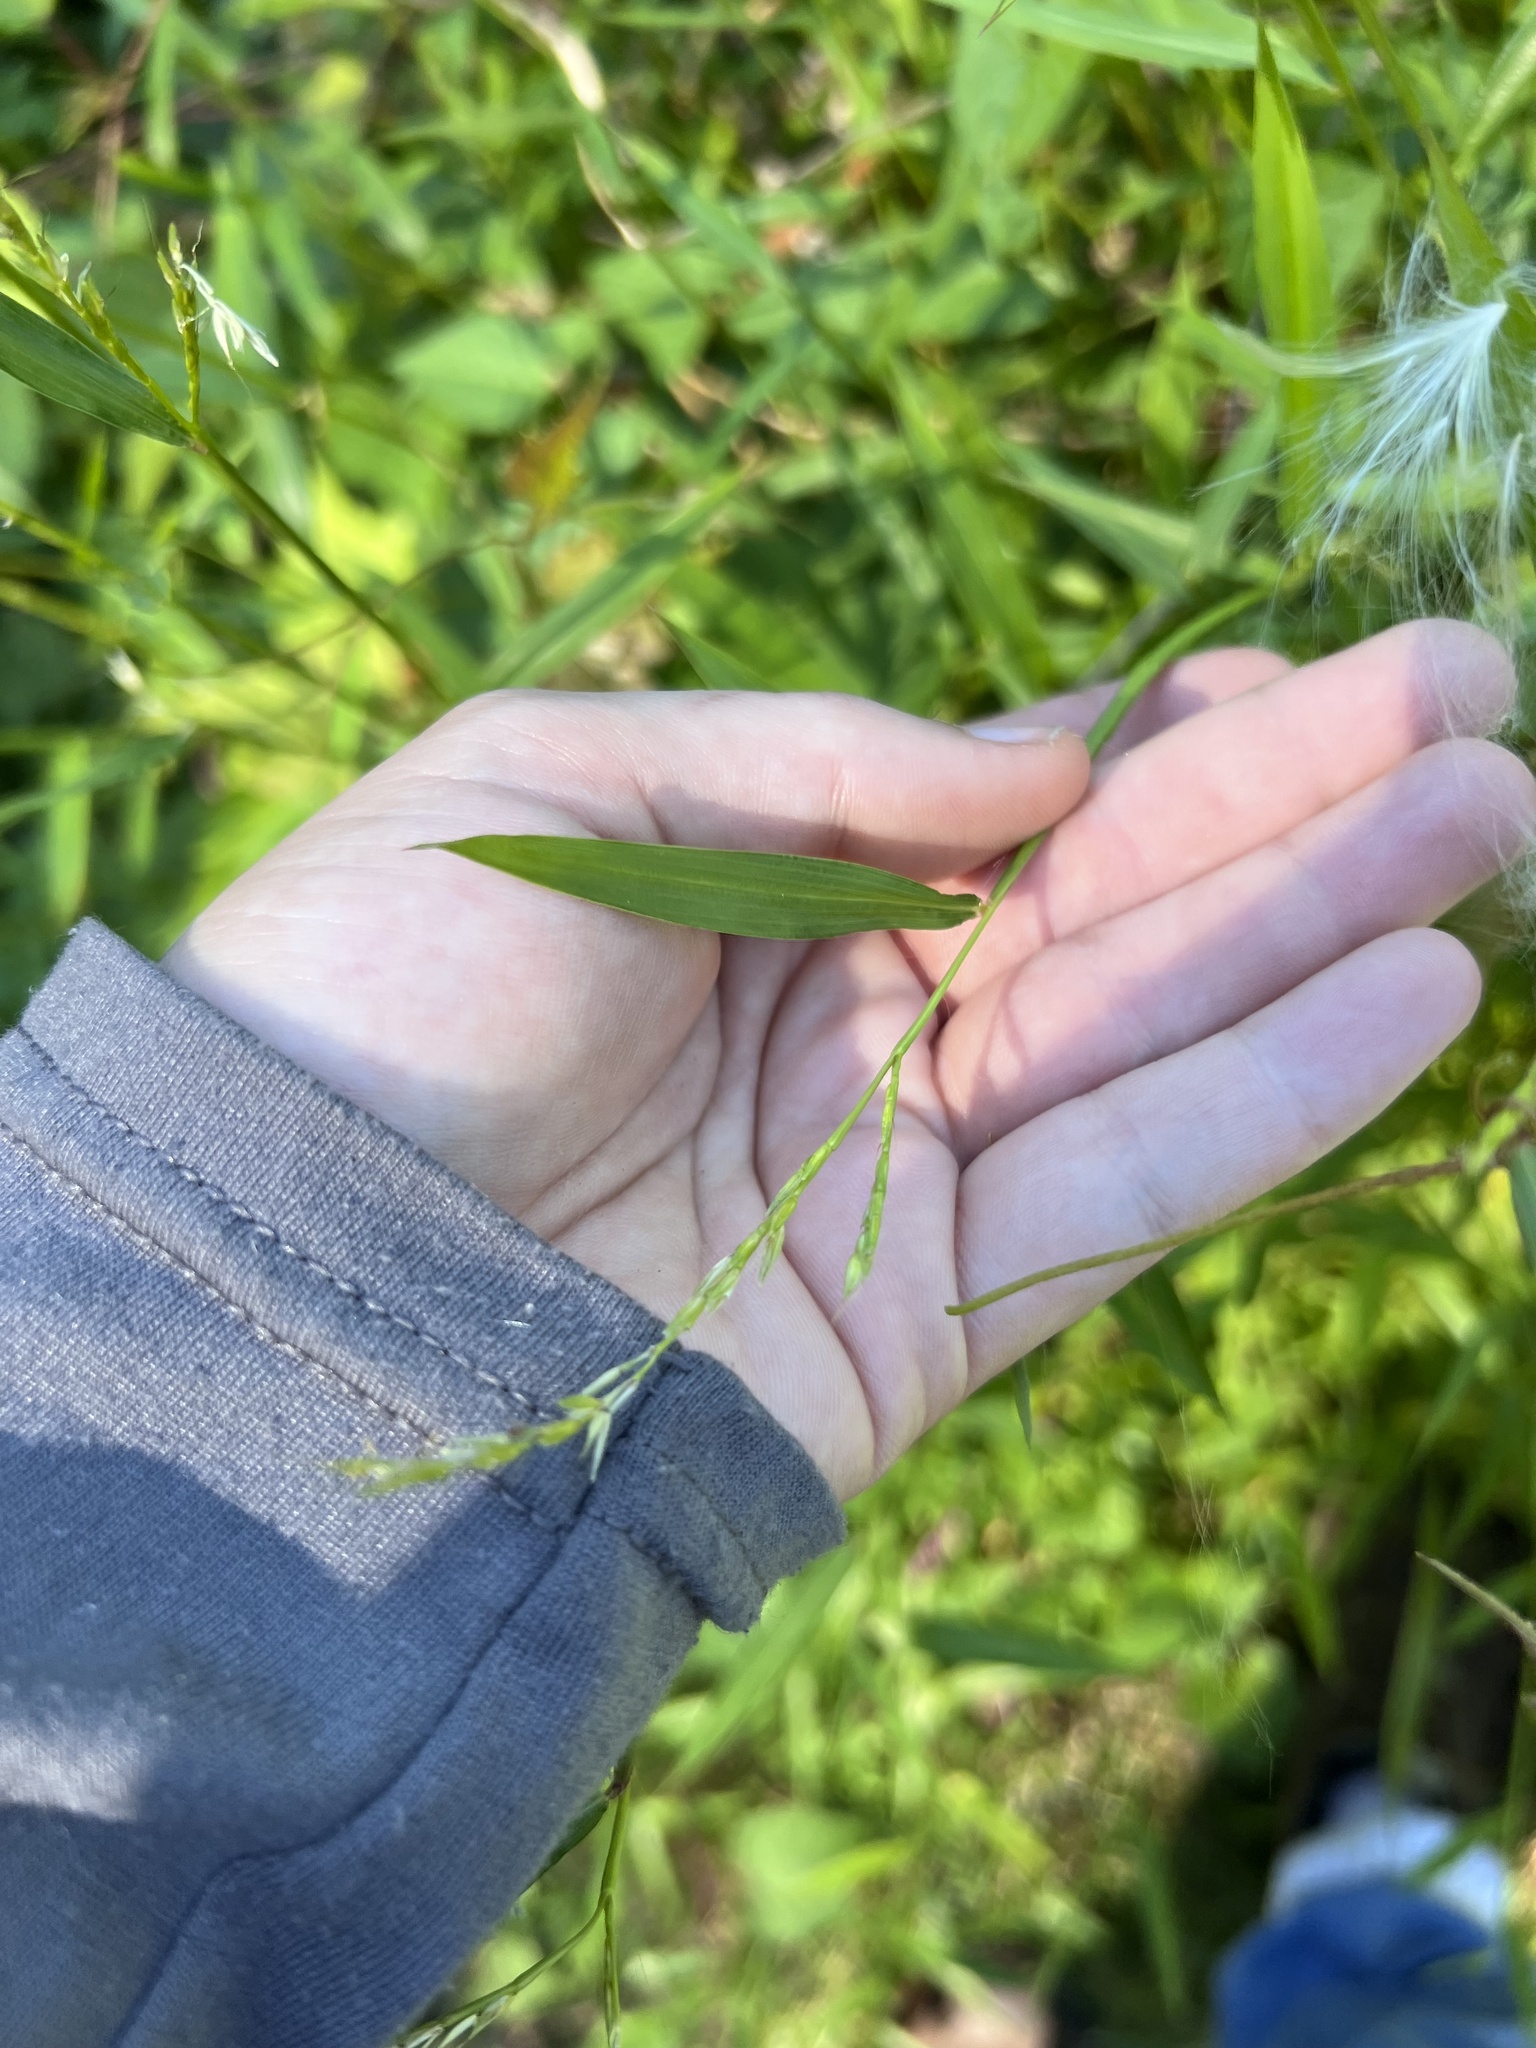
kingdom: Plantae
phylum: Tracheophyta
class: Liliopsida
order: Poales
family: Poaceae
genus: Microstegium
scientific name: Microstegium vimineum
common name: Japanese stiltgrass
